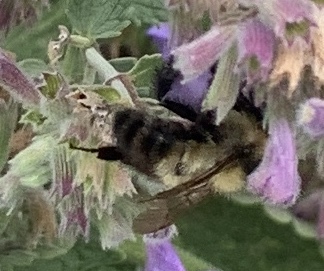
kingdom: Animalia
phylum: Arthropoda
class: Insecta
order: Hymenoptera
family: Apidae
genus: Bombus
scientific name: Bombus rufocinctus
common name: Red-belted bumble bee
